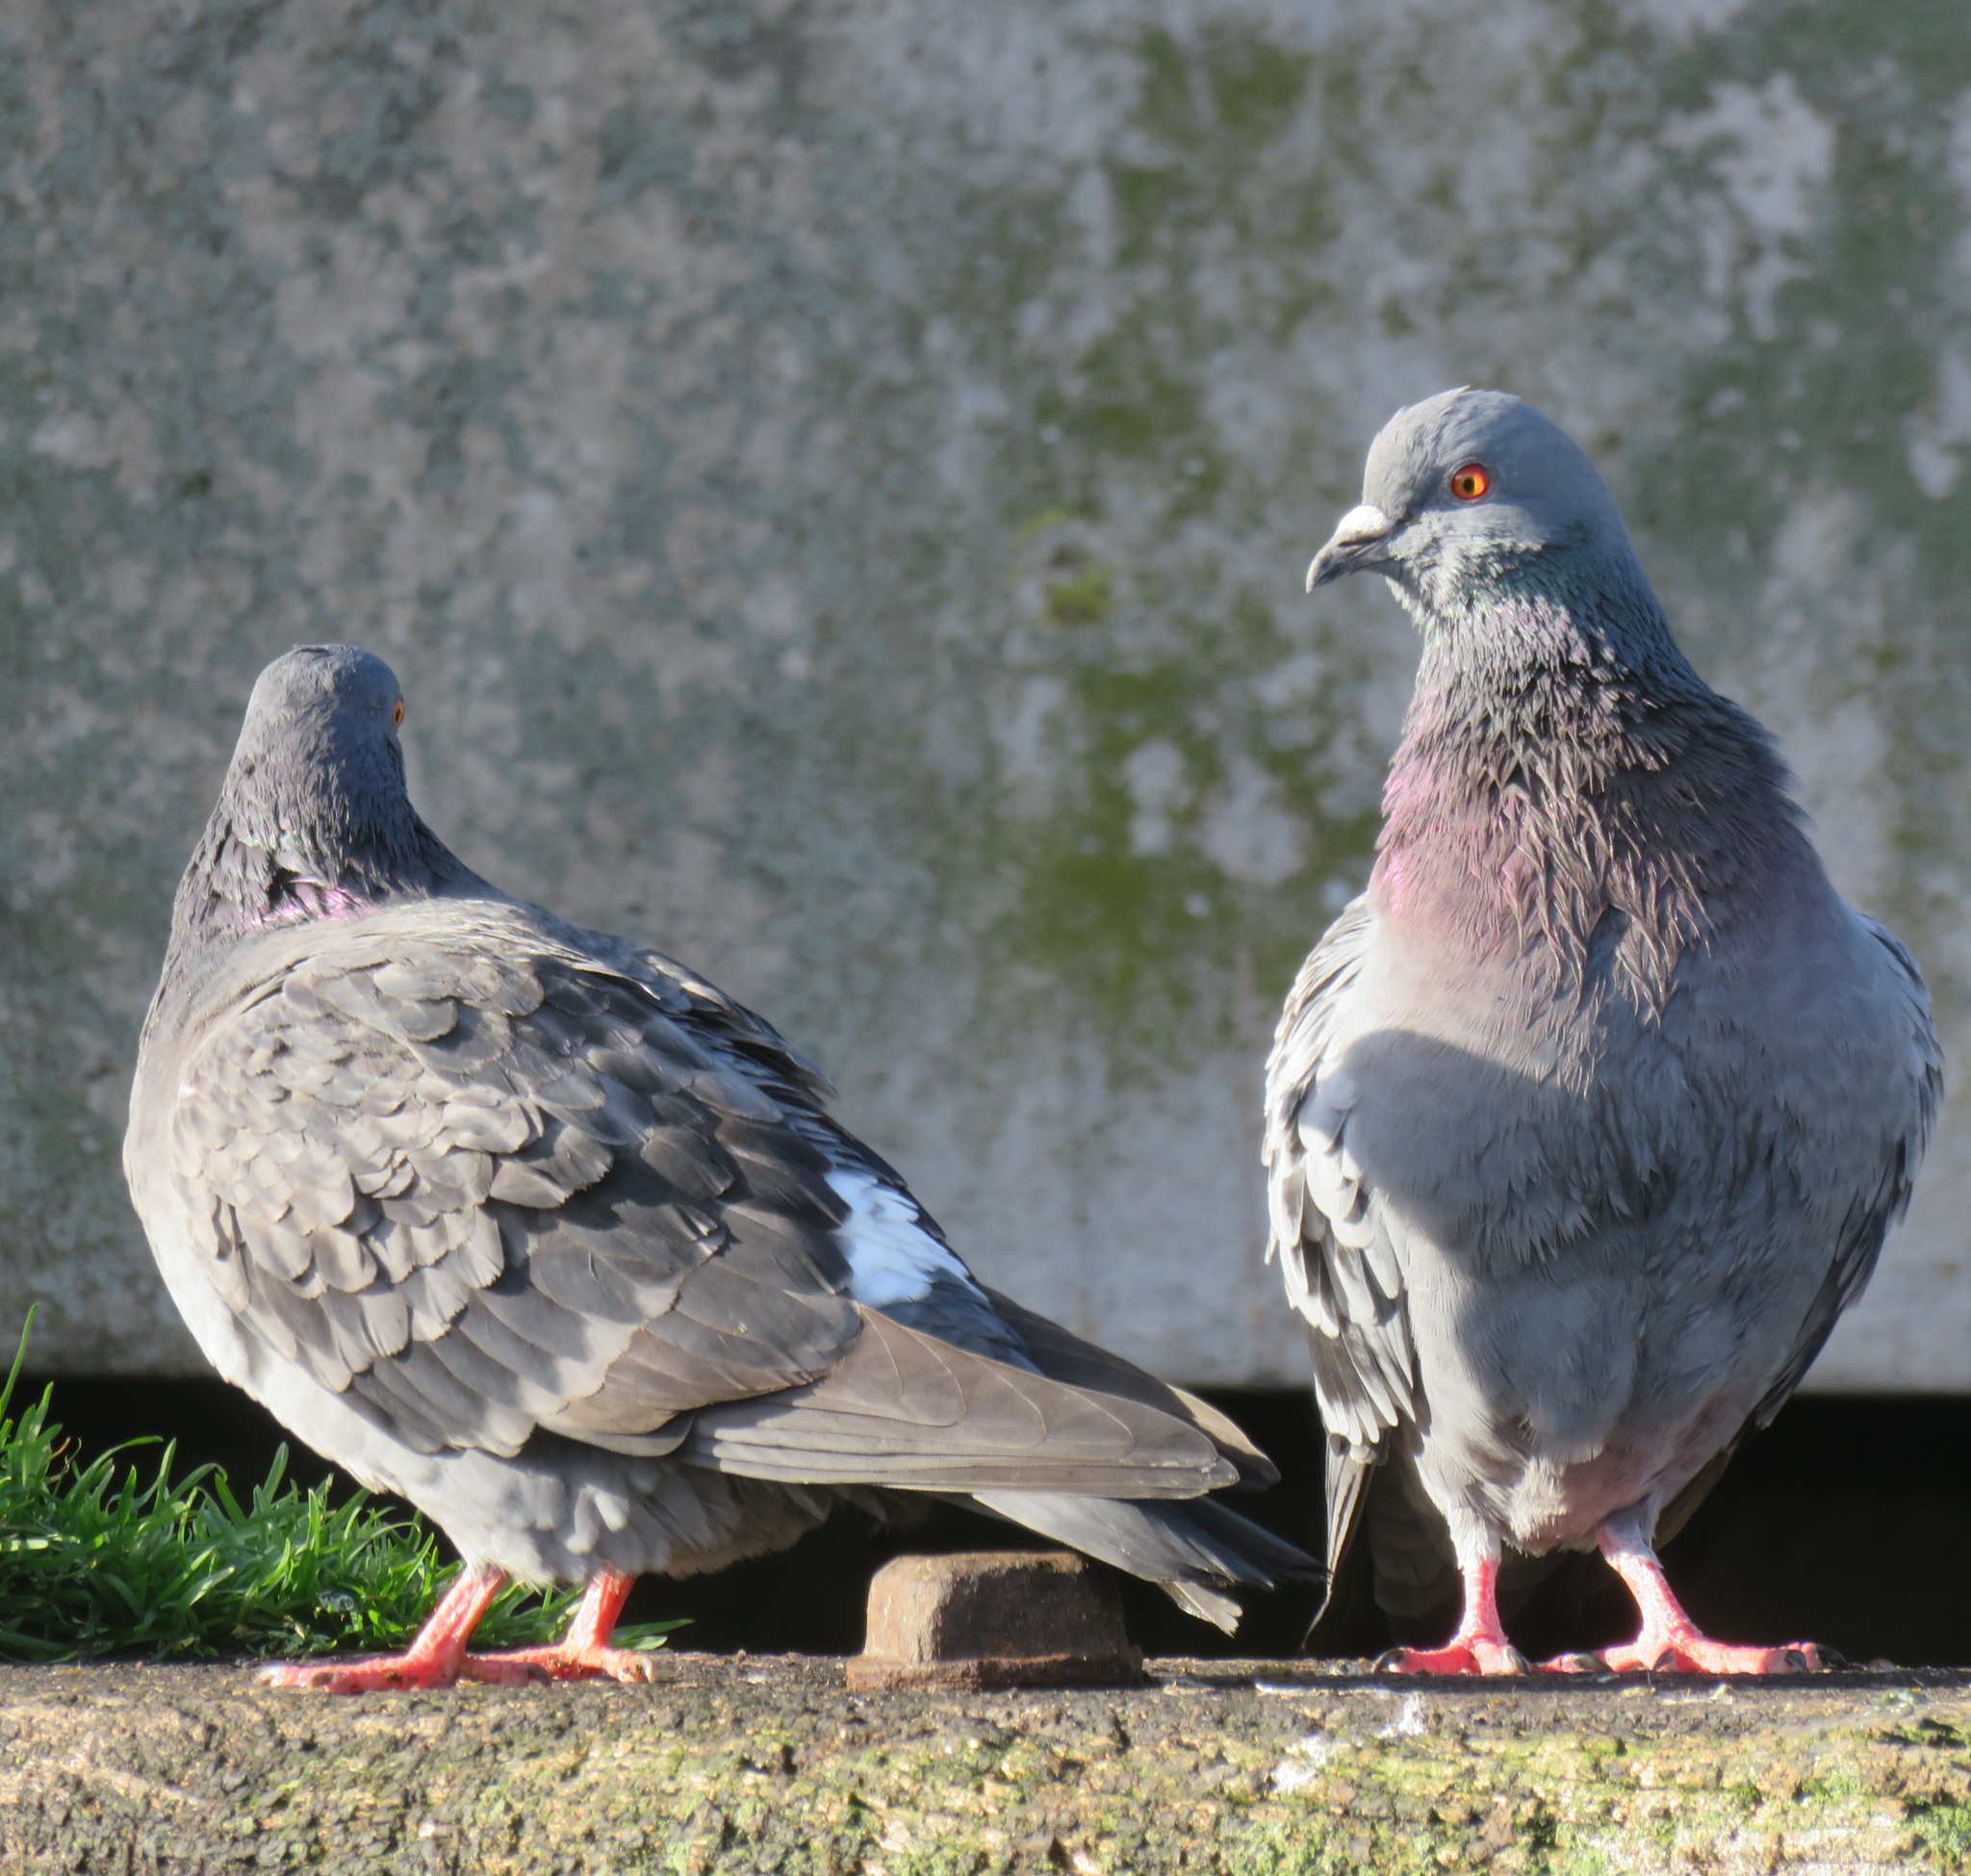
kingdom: Animalia
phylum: Chordata
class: Aves
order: Columbiformes
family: Columbidae
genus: Columba
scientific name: Columba livia
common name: Rock pigeon
